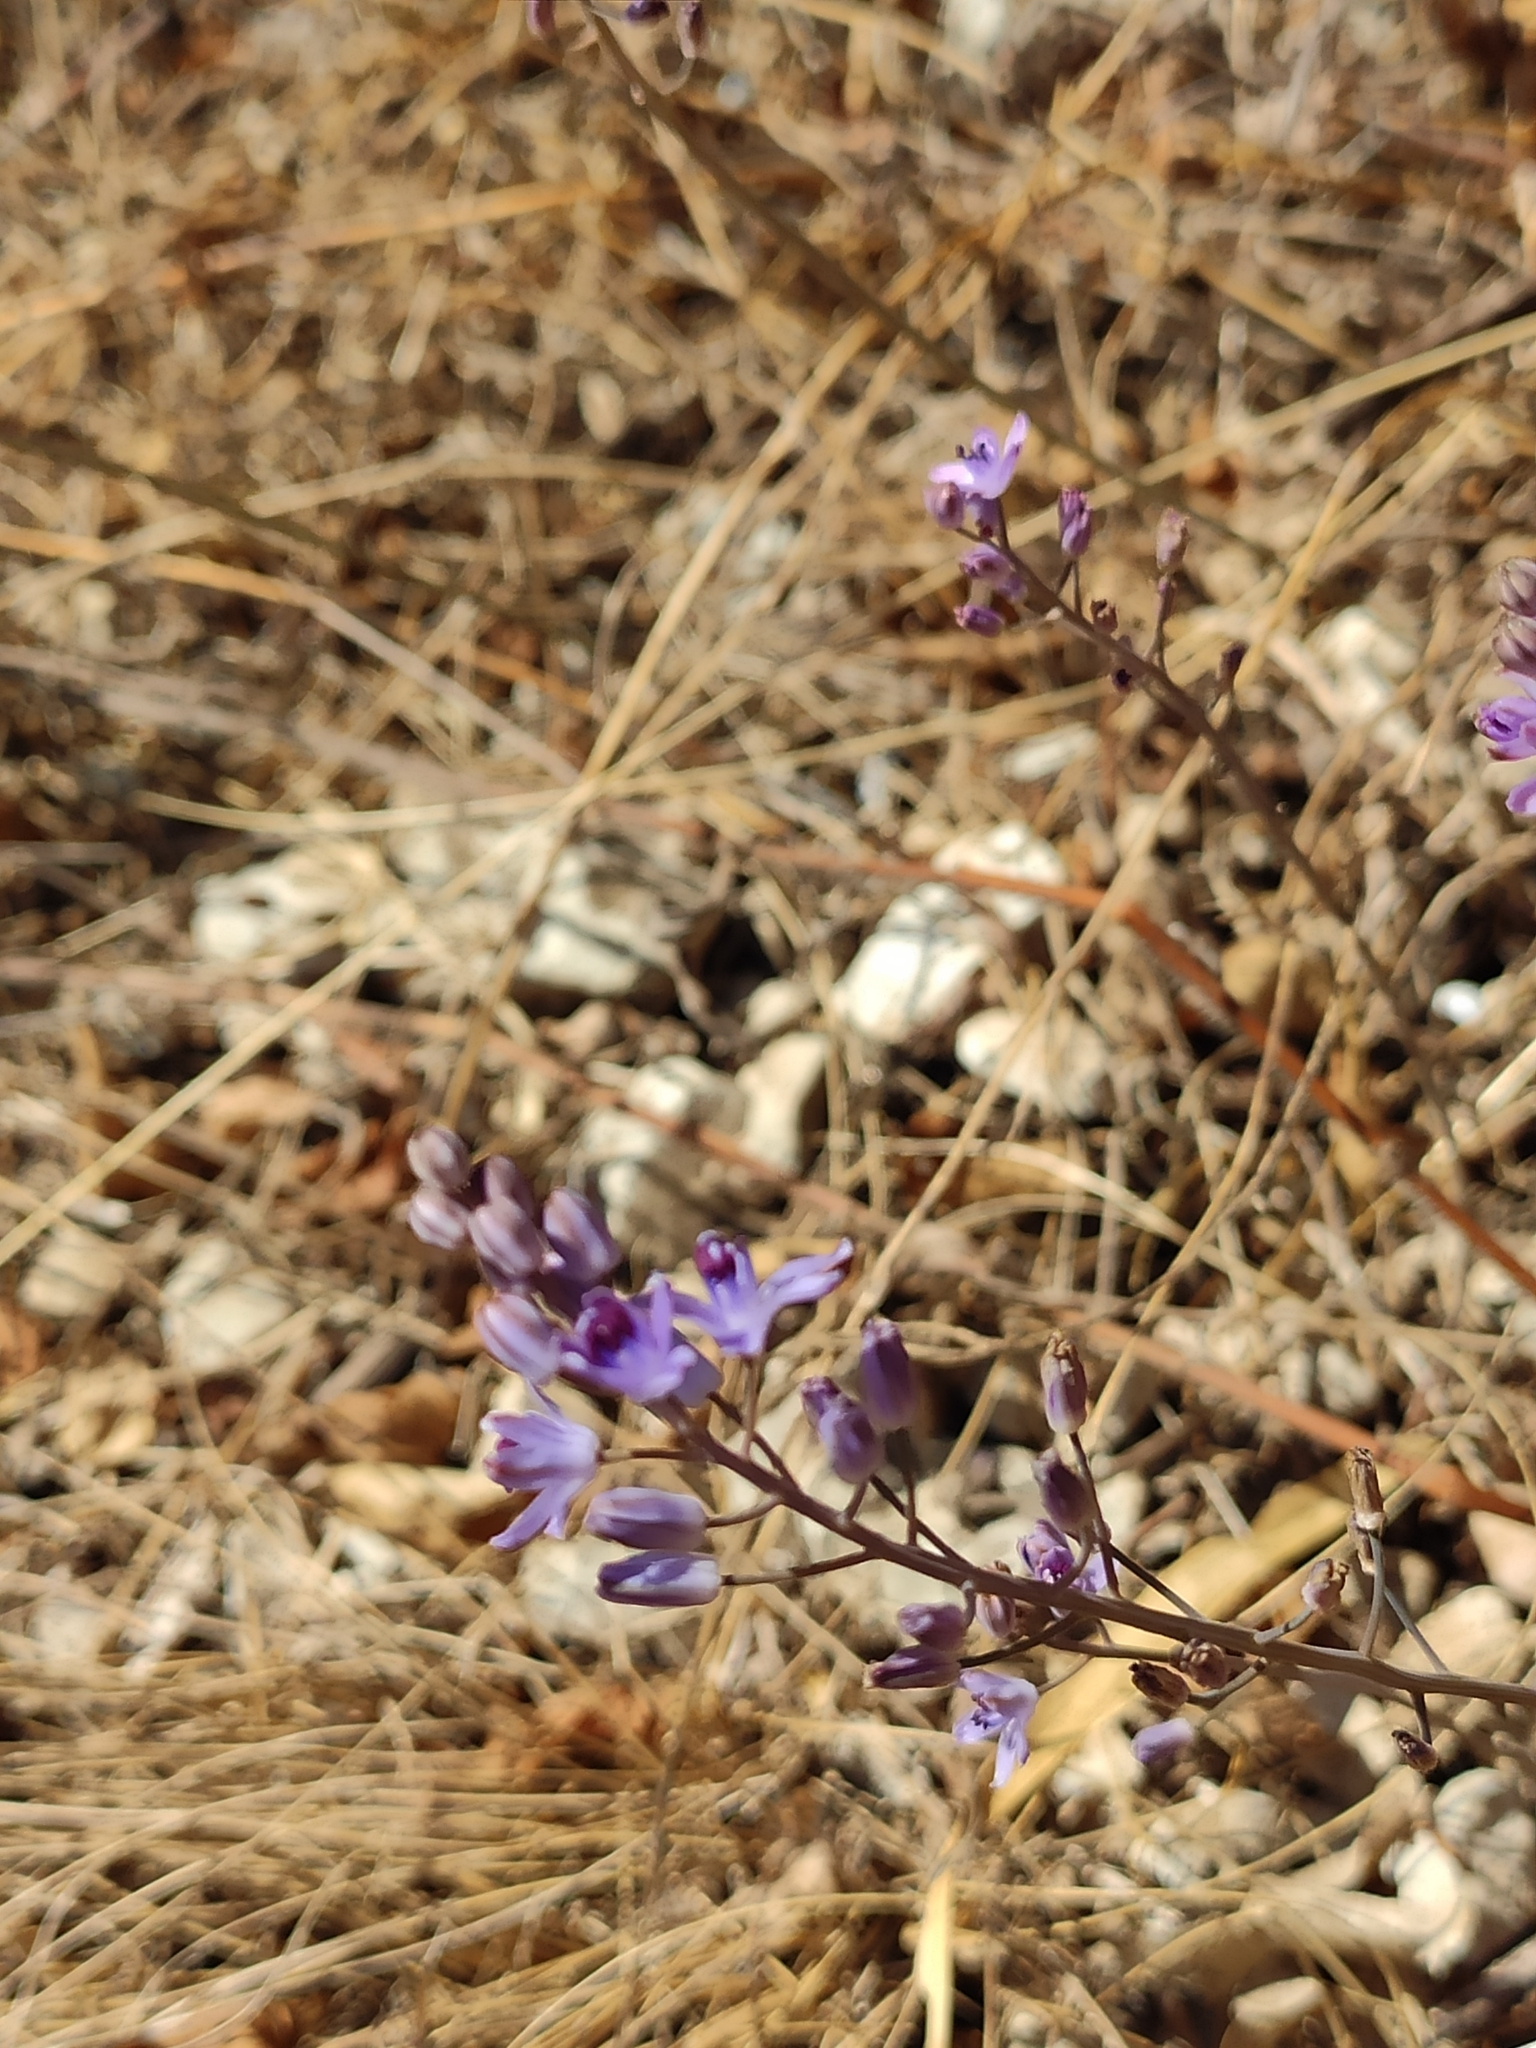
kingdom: Plantae
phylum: Tracheophyta
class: Liliopsida
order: Asparagales
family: Asparagaceae
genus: Prospero
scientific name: Prospero autumnale
